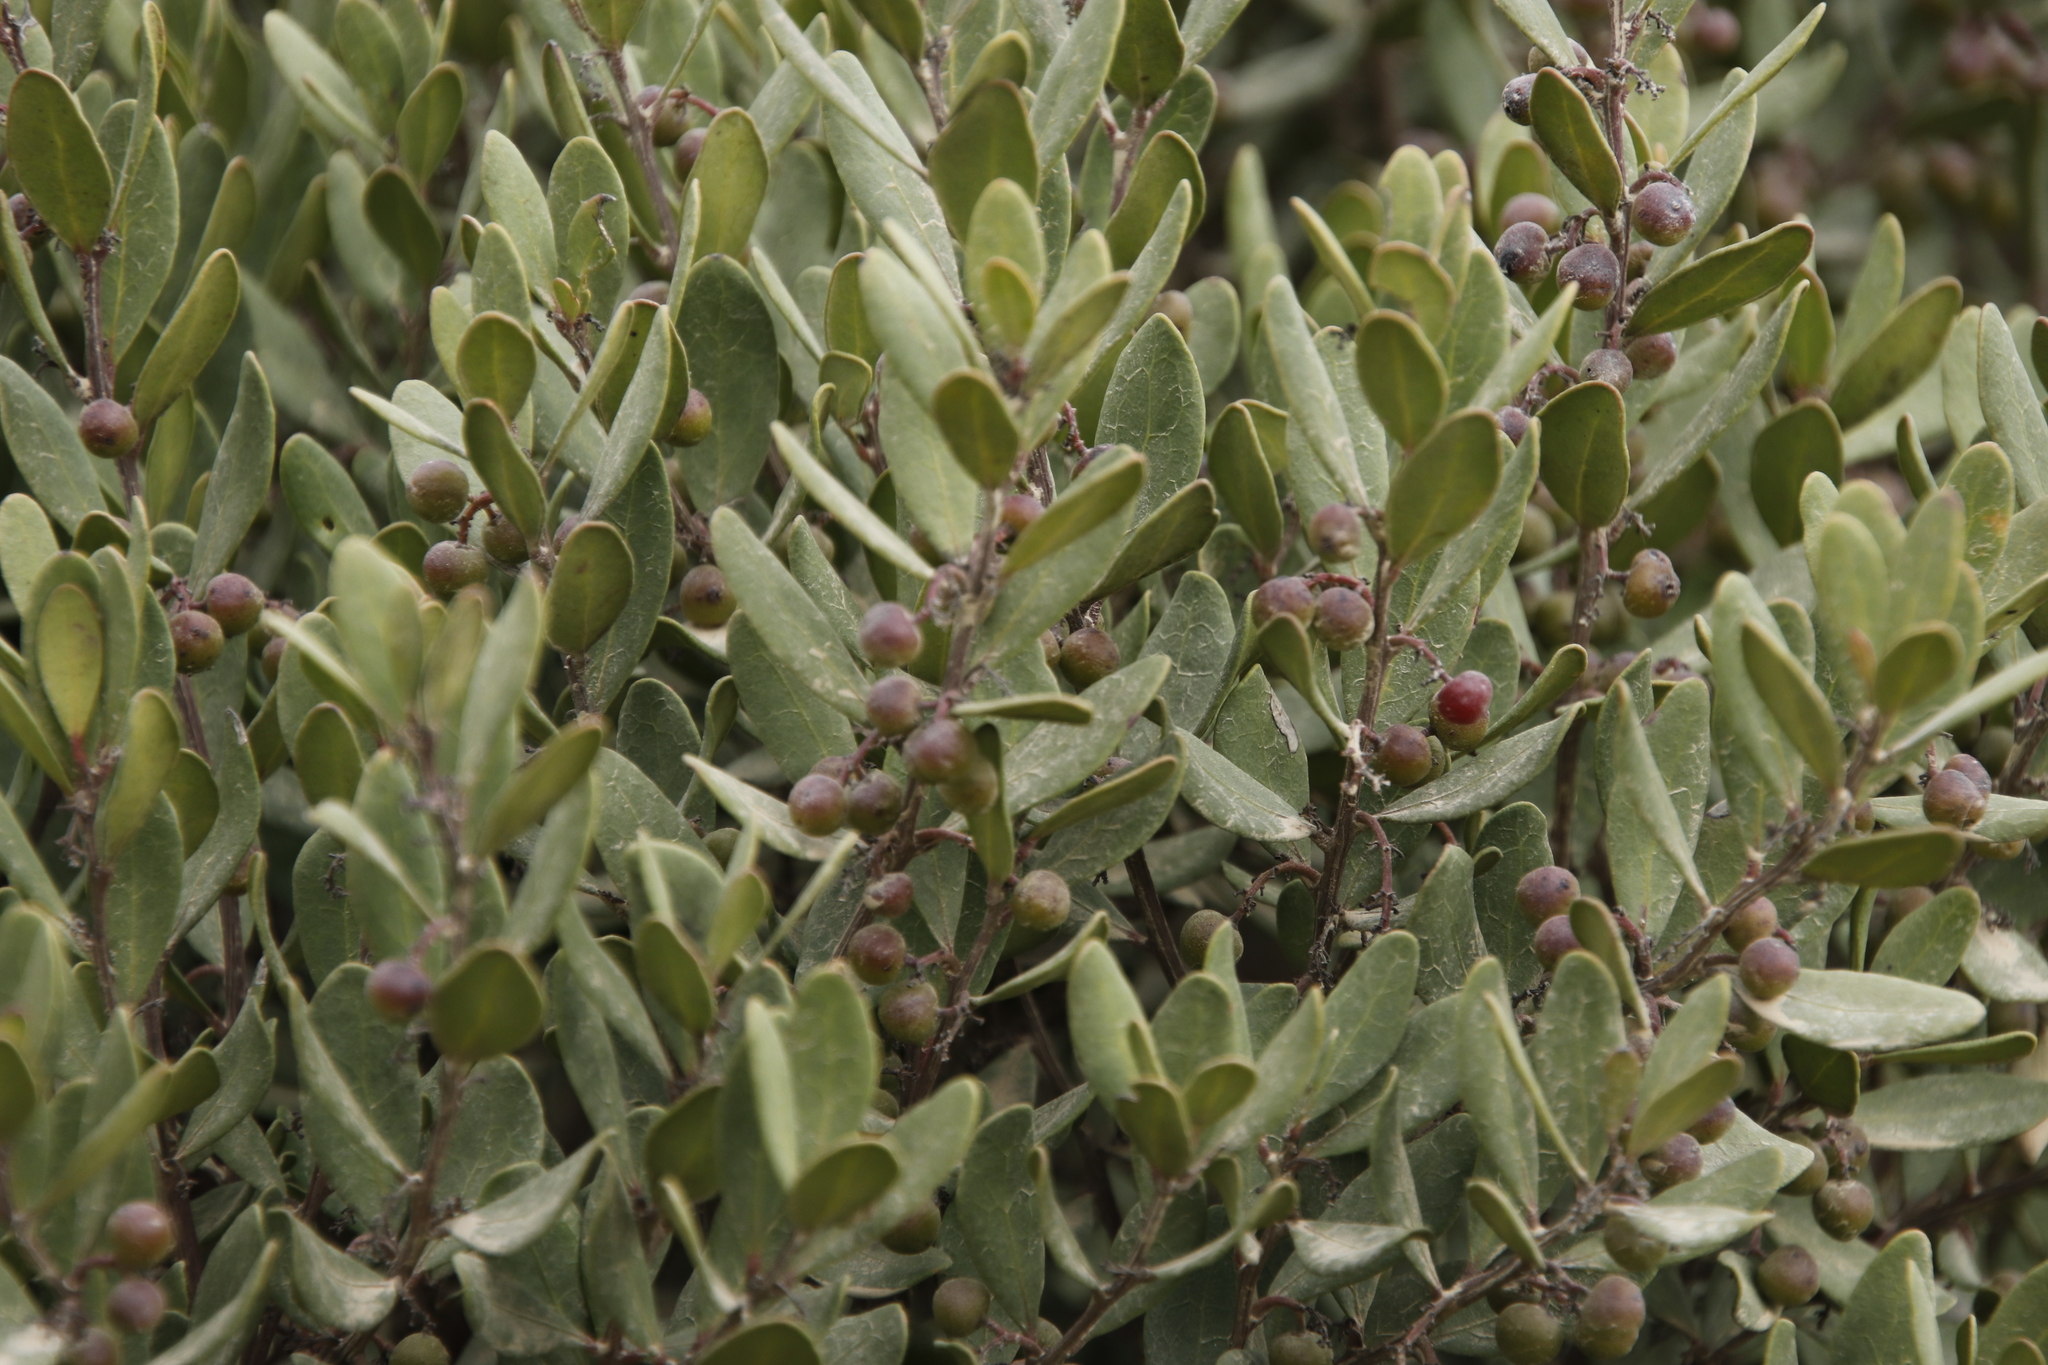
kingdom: Plantae
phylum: Tracheophyta
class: Magnoliopsida
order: Ericales
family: Ebenaceae
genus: Euclea
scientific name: Euclea racemosa
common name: Dune guarri
